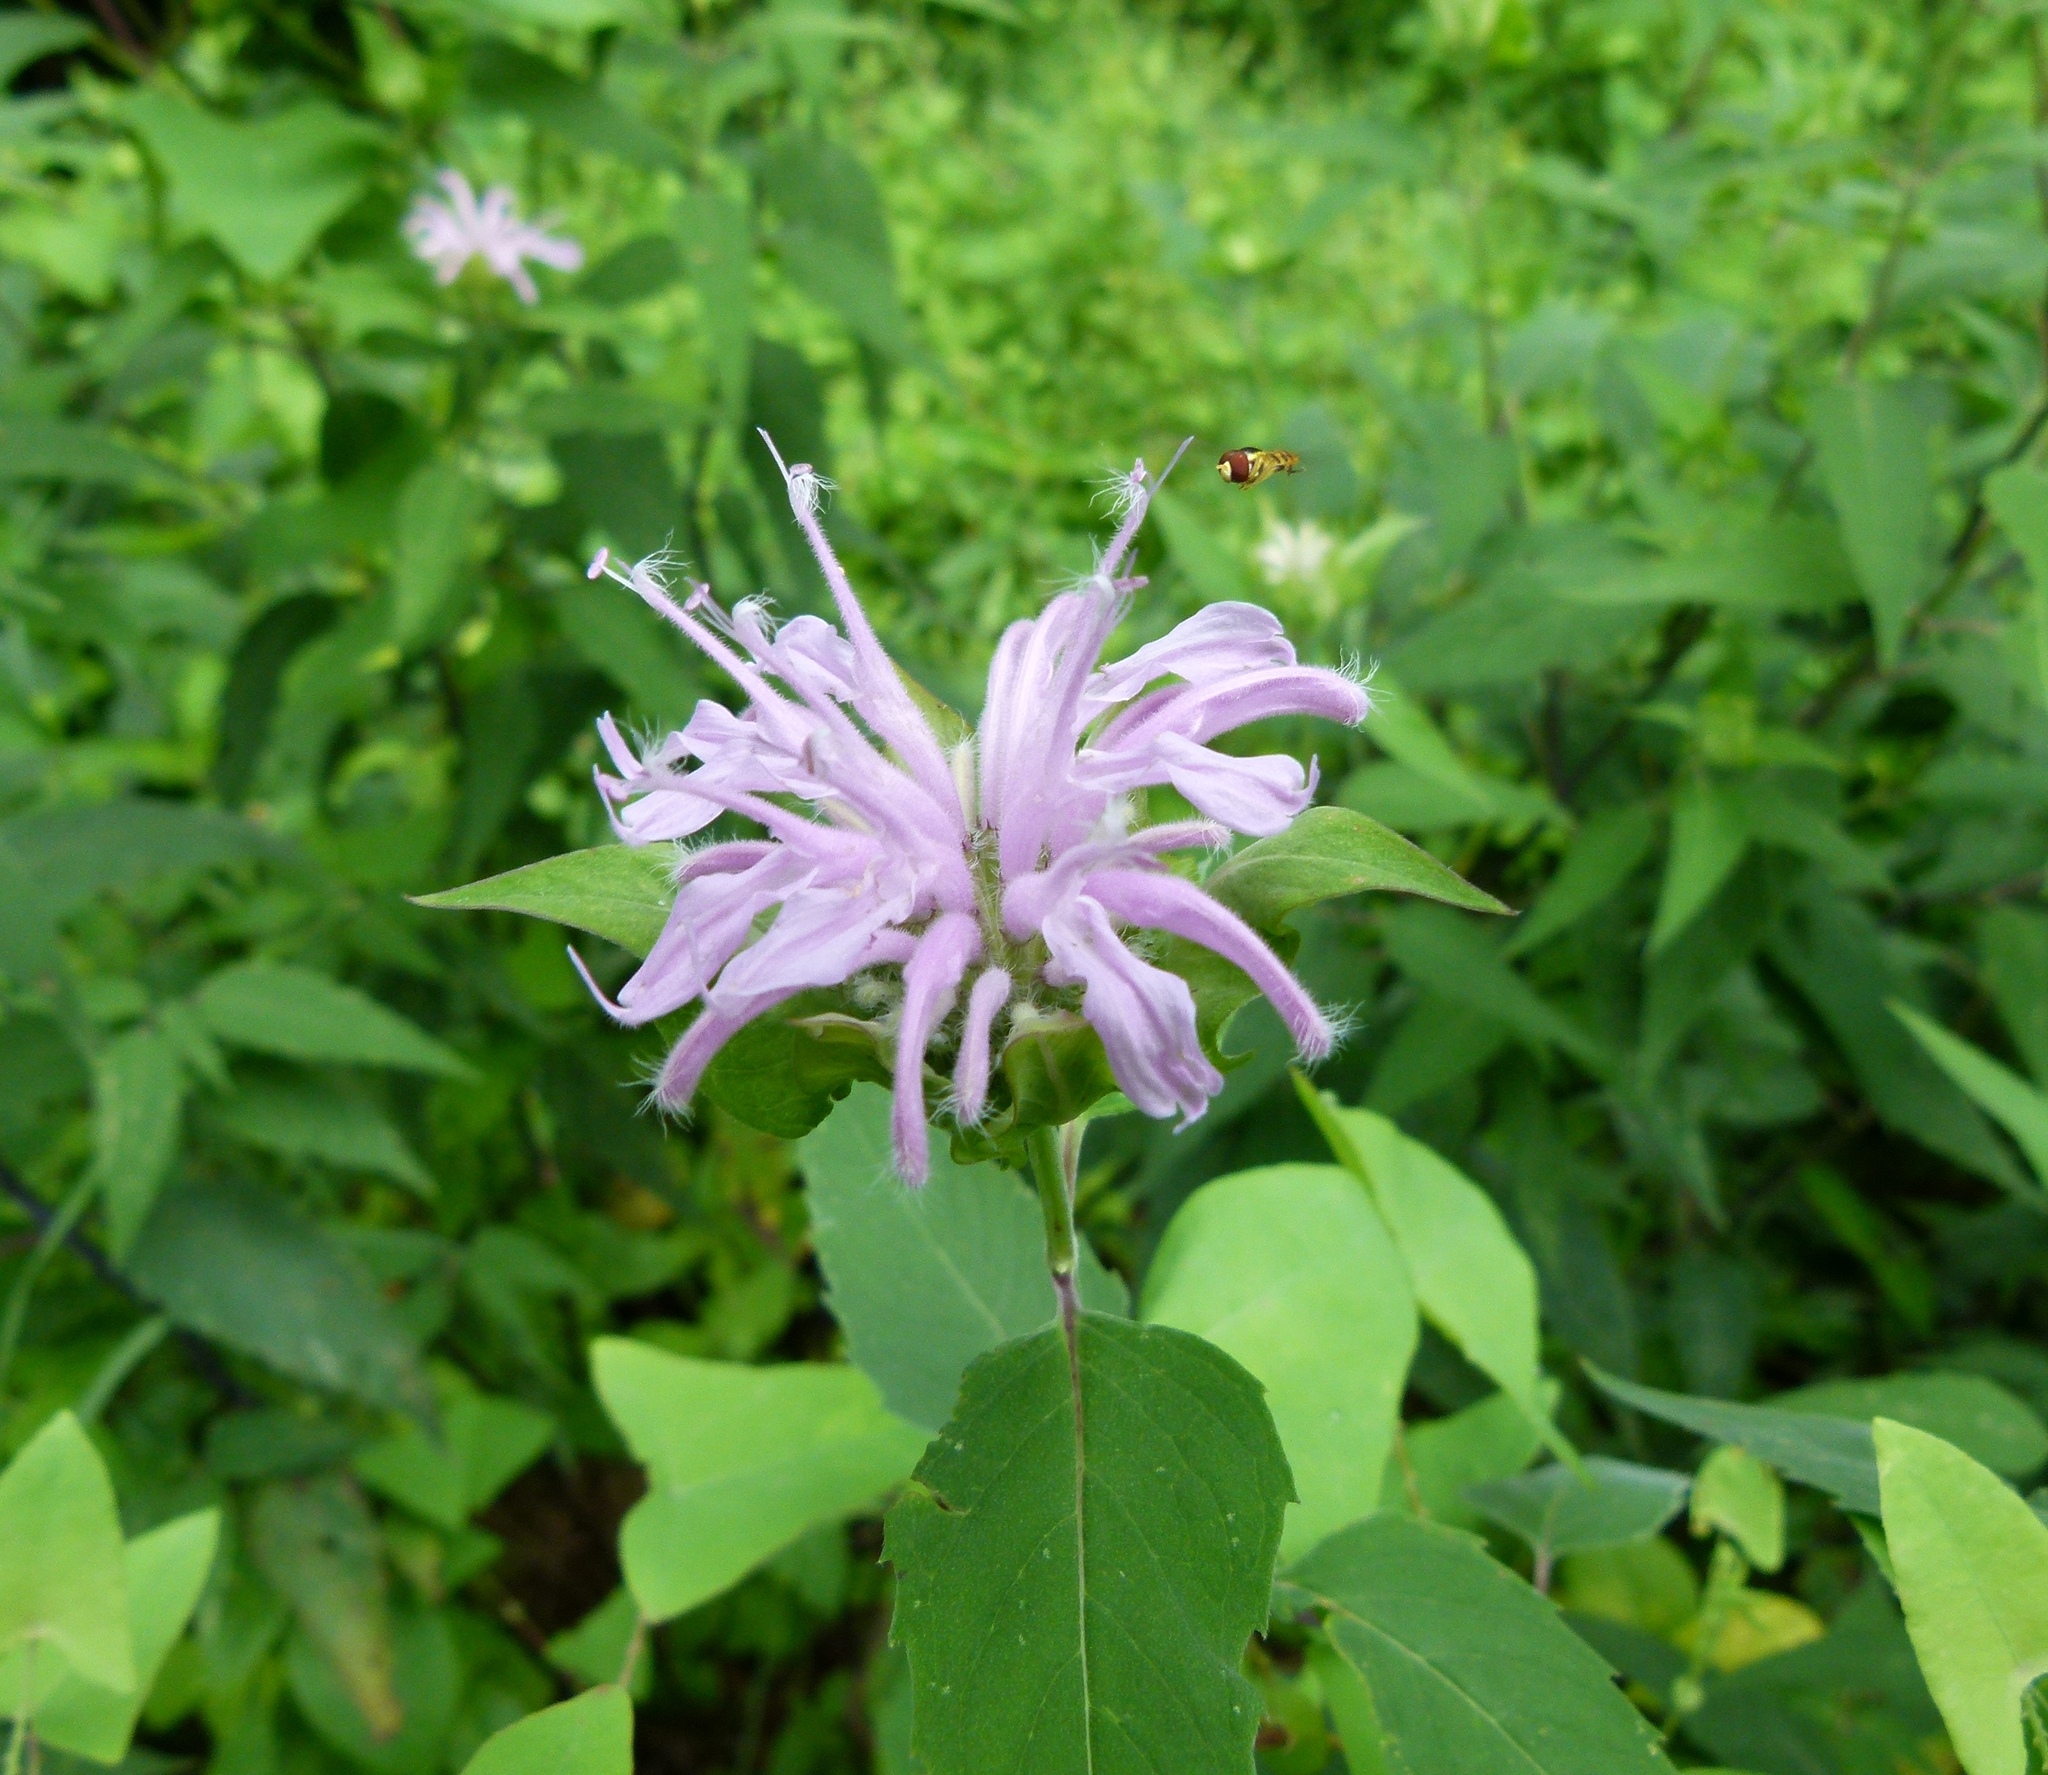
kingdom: Plantae
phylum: Tracheophyta
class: Magnoliopsida
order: Lamiales
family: Lamiaceae
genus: Monarda
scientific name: Monarda fistulosa
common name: Purple beebalm
